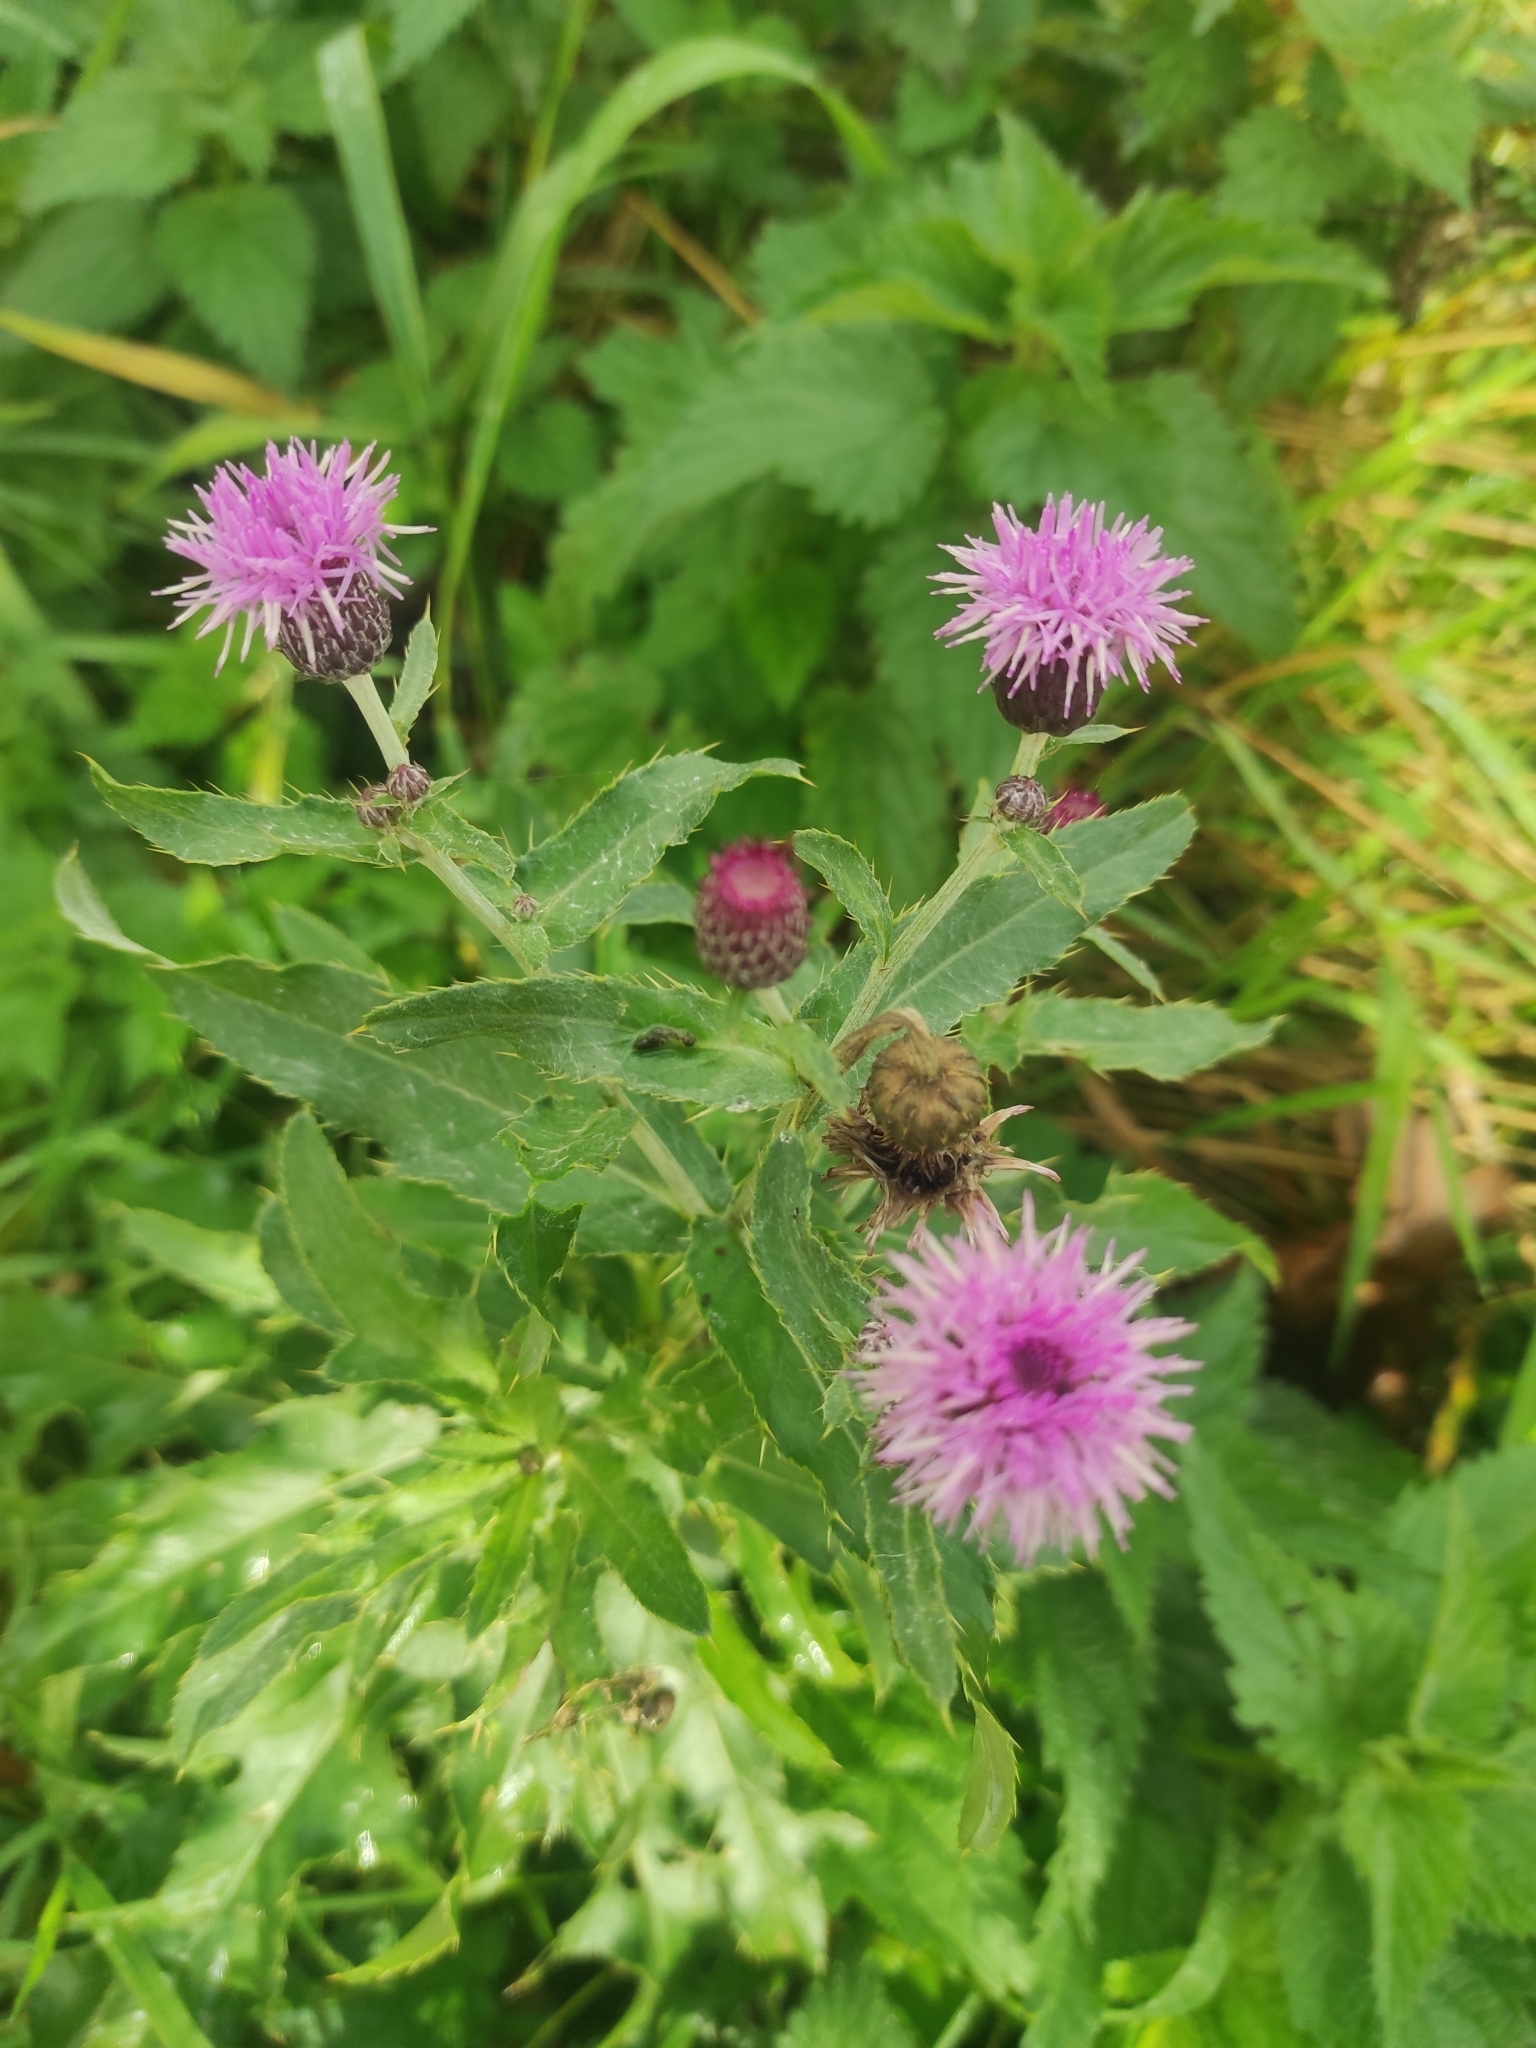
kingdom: Plantae
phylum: Tracheophyta
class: Magnoliopsida
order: Asterales
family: Asteraceae
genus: Cirsium
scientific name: Cirsium arvense
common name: Creeping thistle
